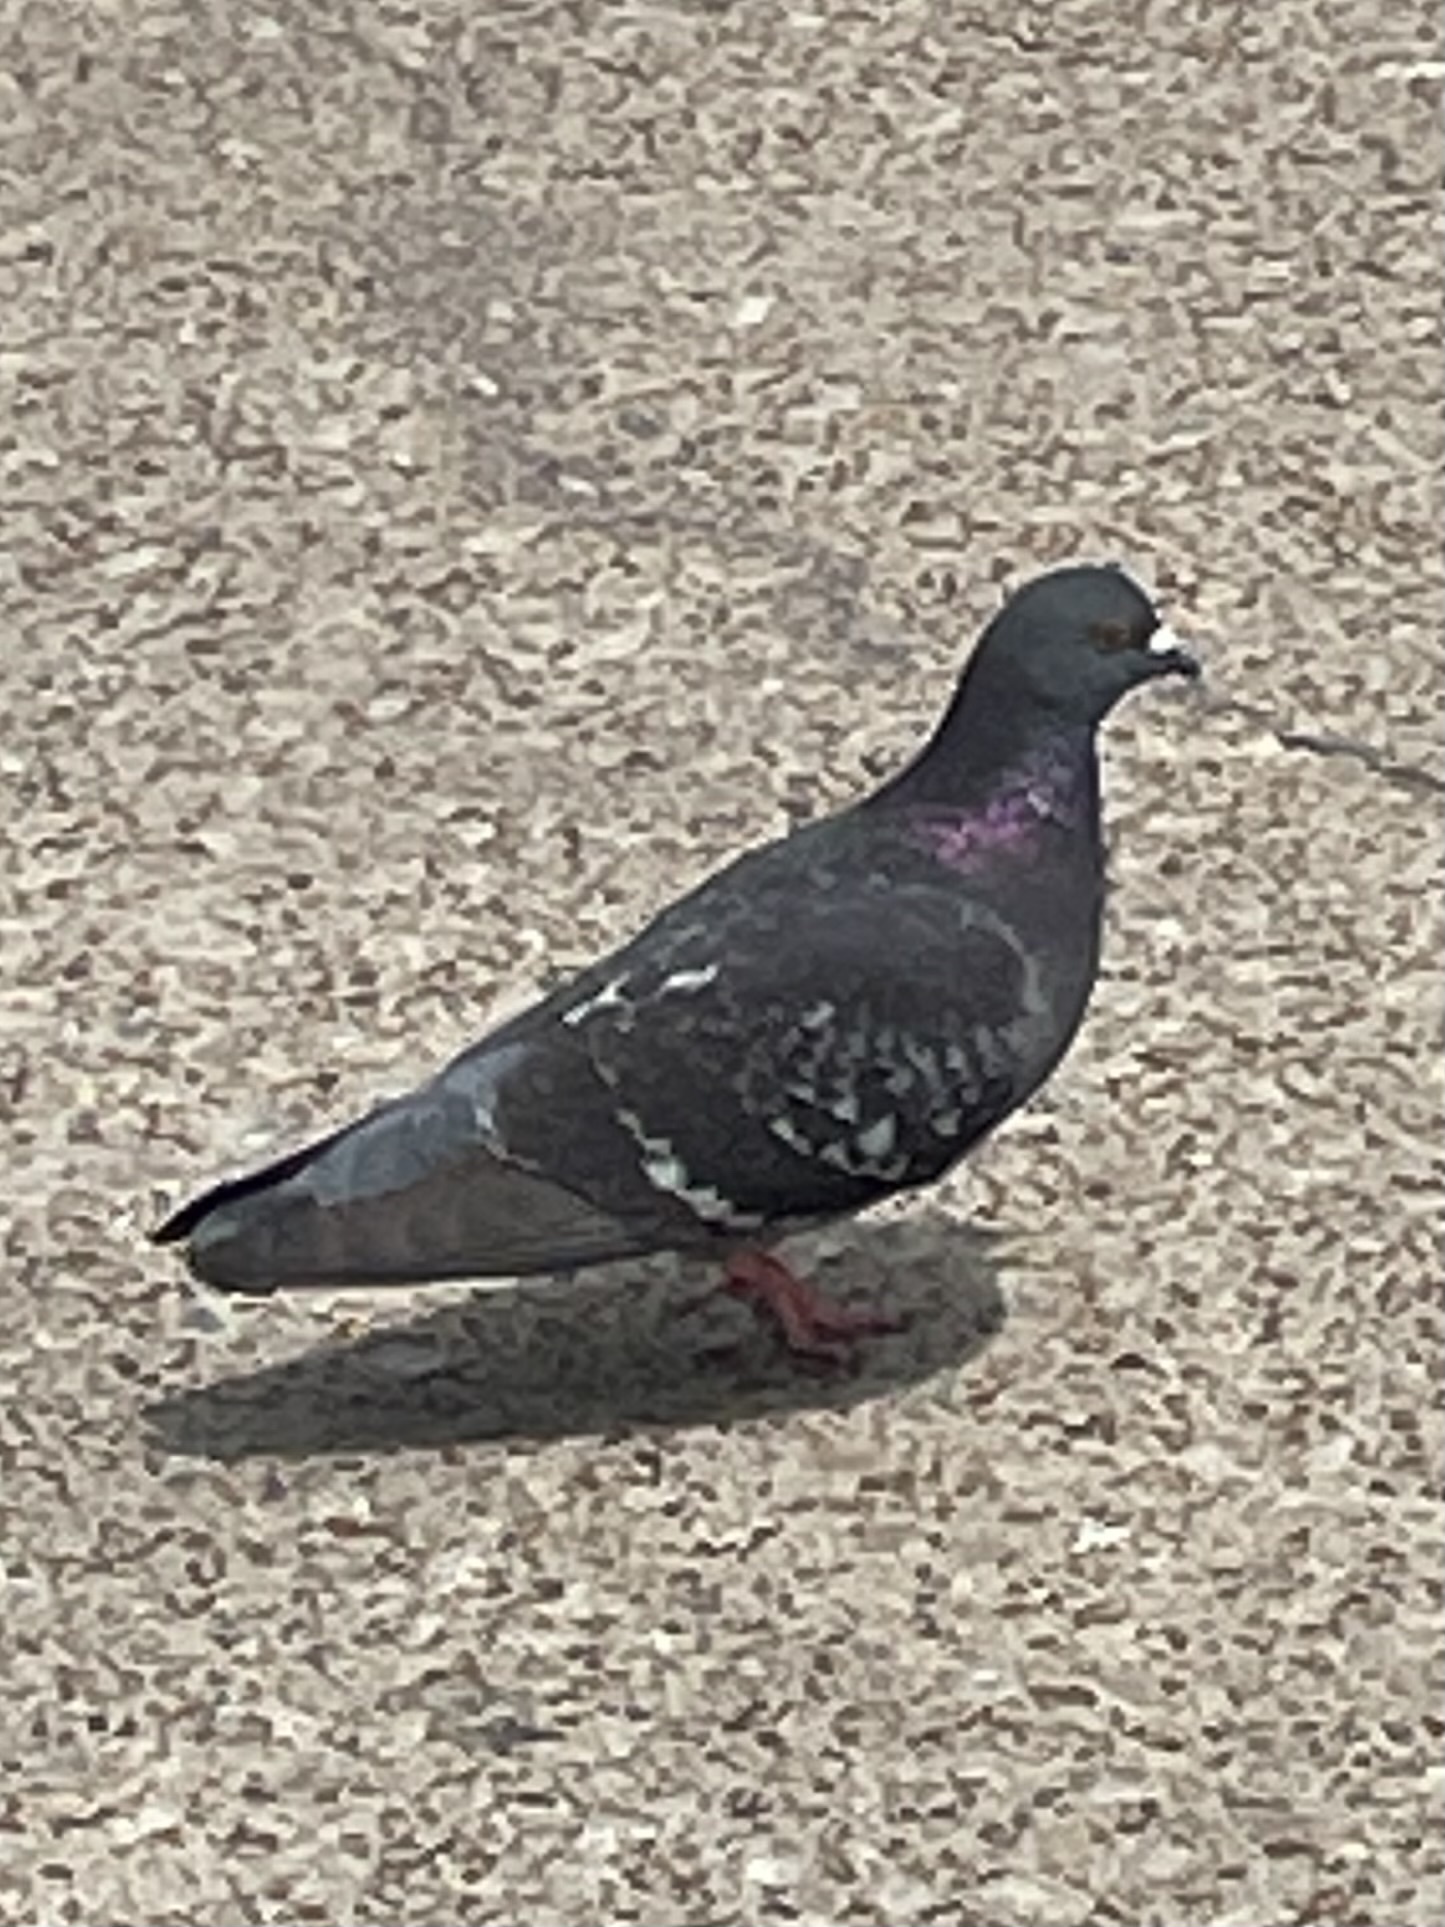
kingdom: Animalia
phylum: Chordata
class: Aves
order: Columbiformes
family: Columbidae
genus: Columba
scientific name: Columba livia
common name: Rock pigeon
